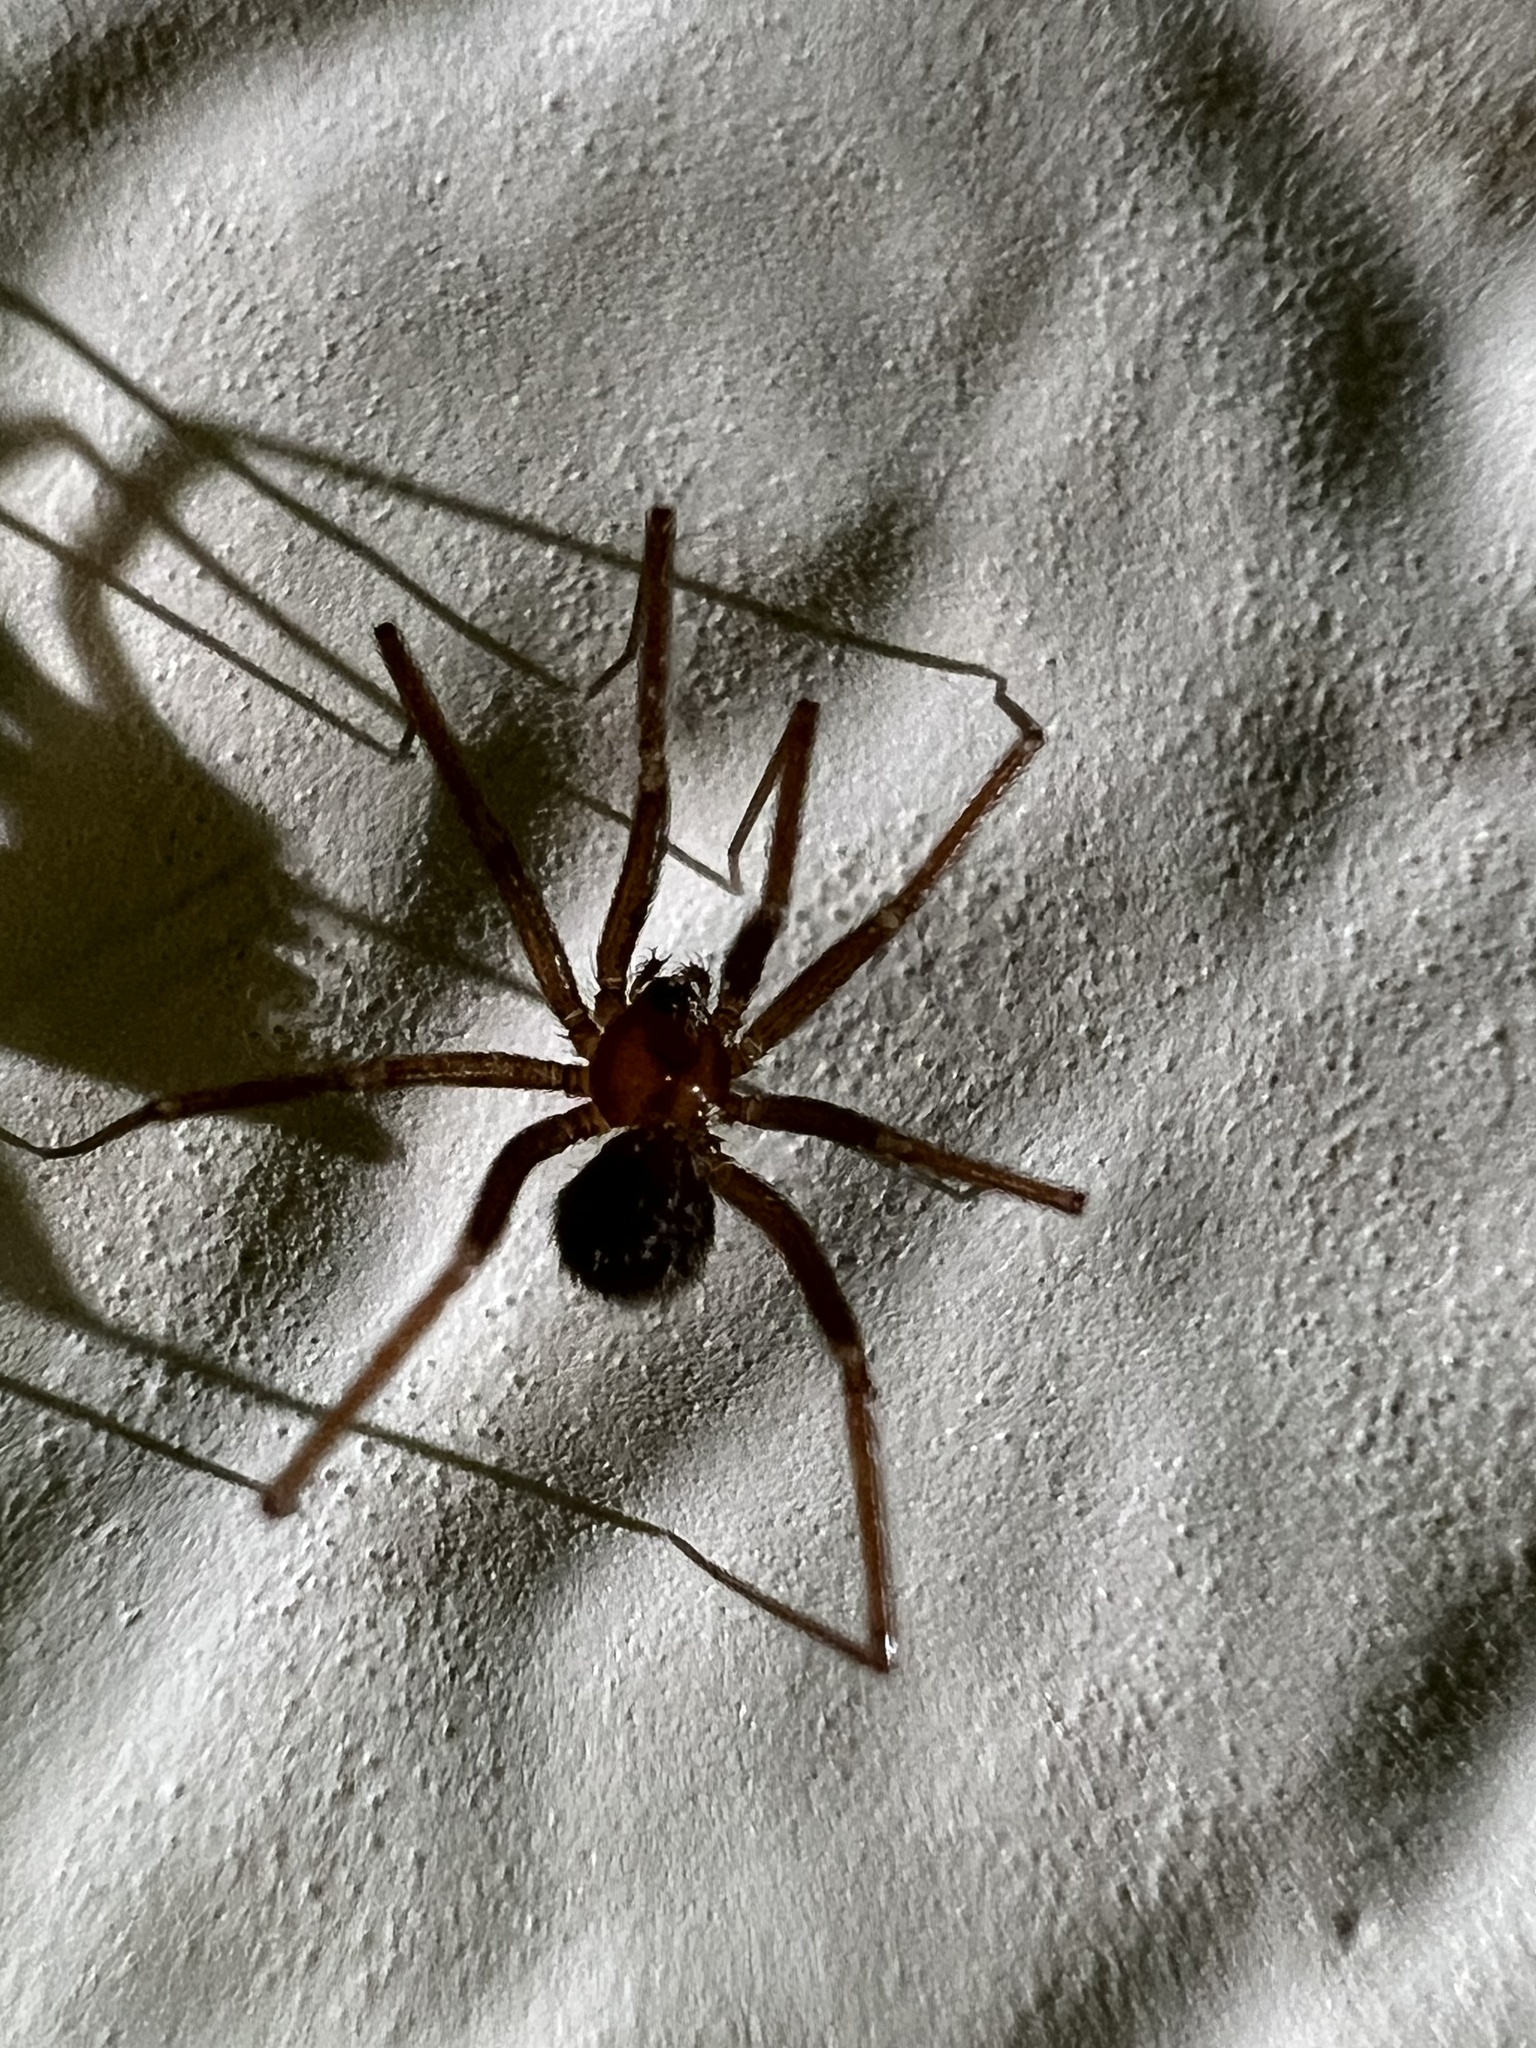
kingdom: Animalia
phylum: Arthropoda
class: Arachnida
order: Araneae
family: Pholcidae
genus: Pholcophora
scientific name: Pholcophora americana
